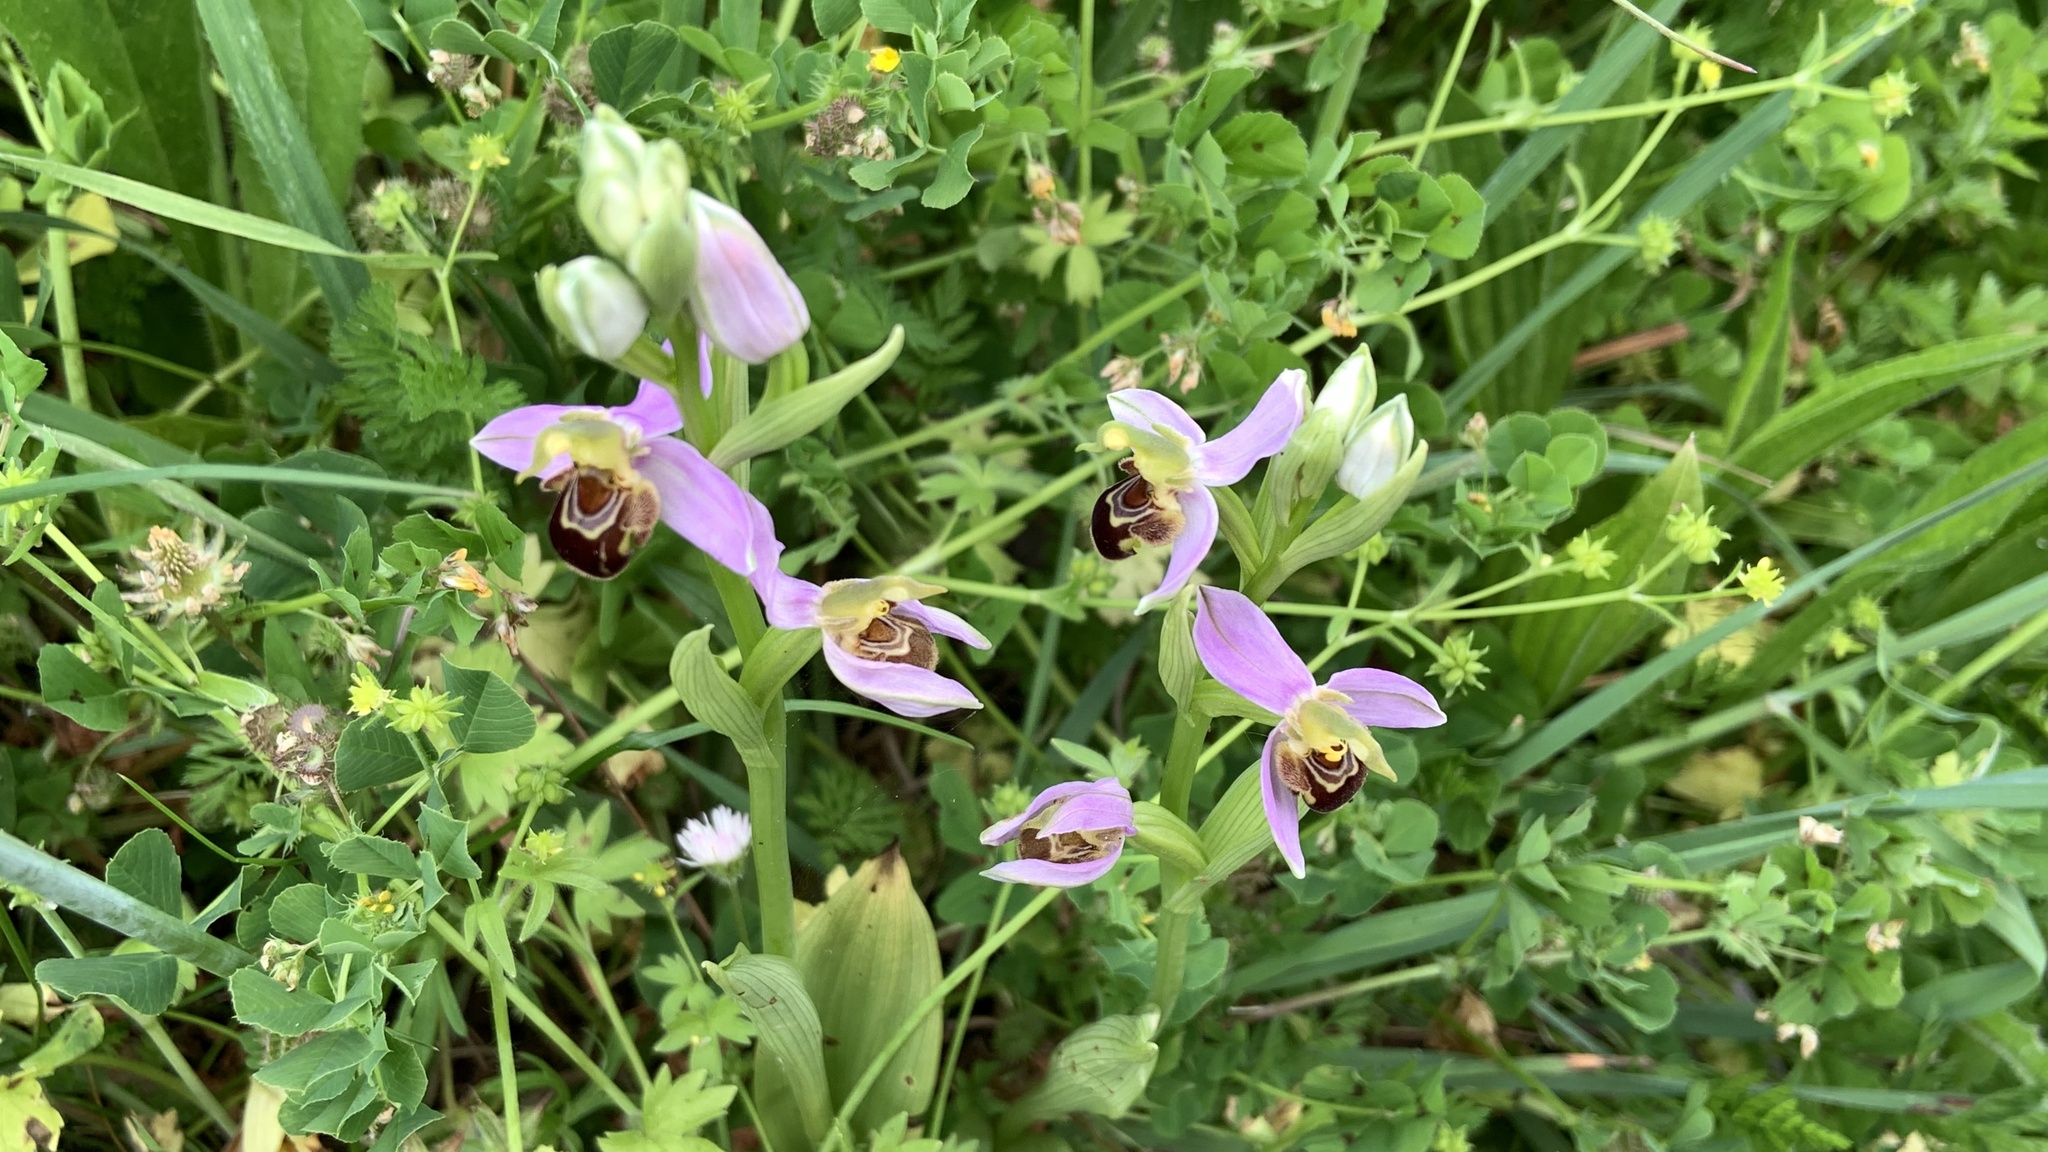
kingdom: Plantae
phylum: Tracheophyta
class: Liliopsida
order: Asparagales
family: Orchidaceae
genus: Ophrys
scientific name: Ophrys apifera
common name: Bee orchid
